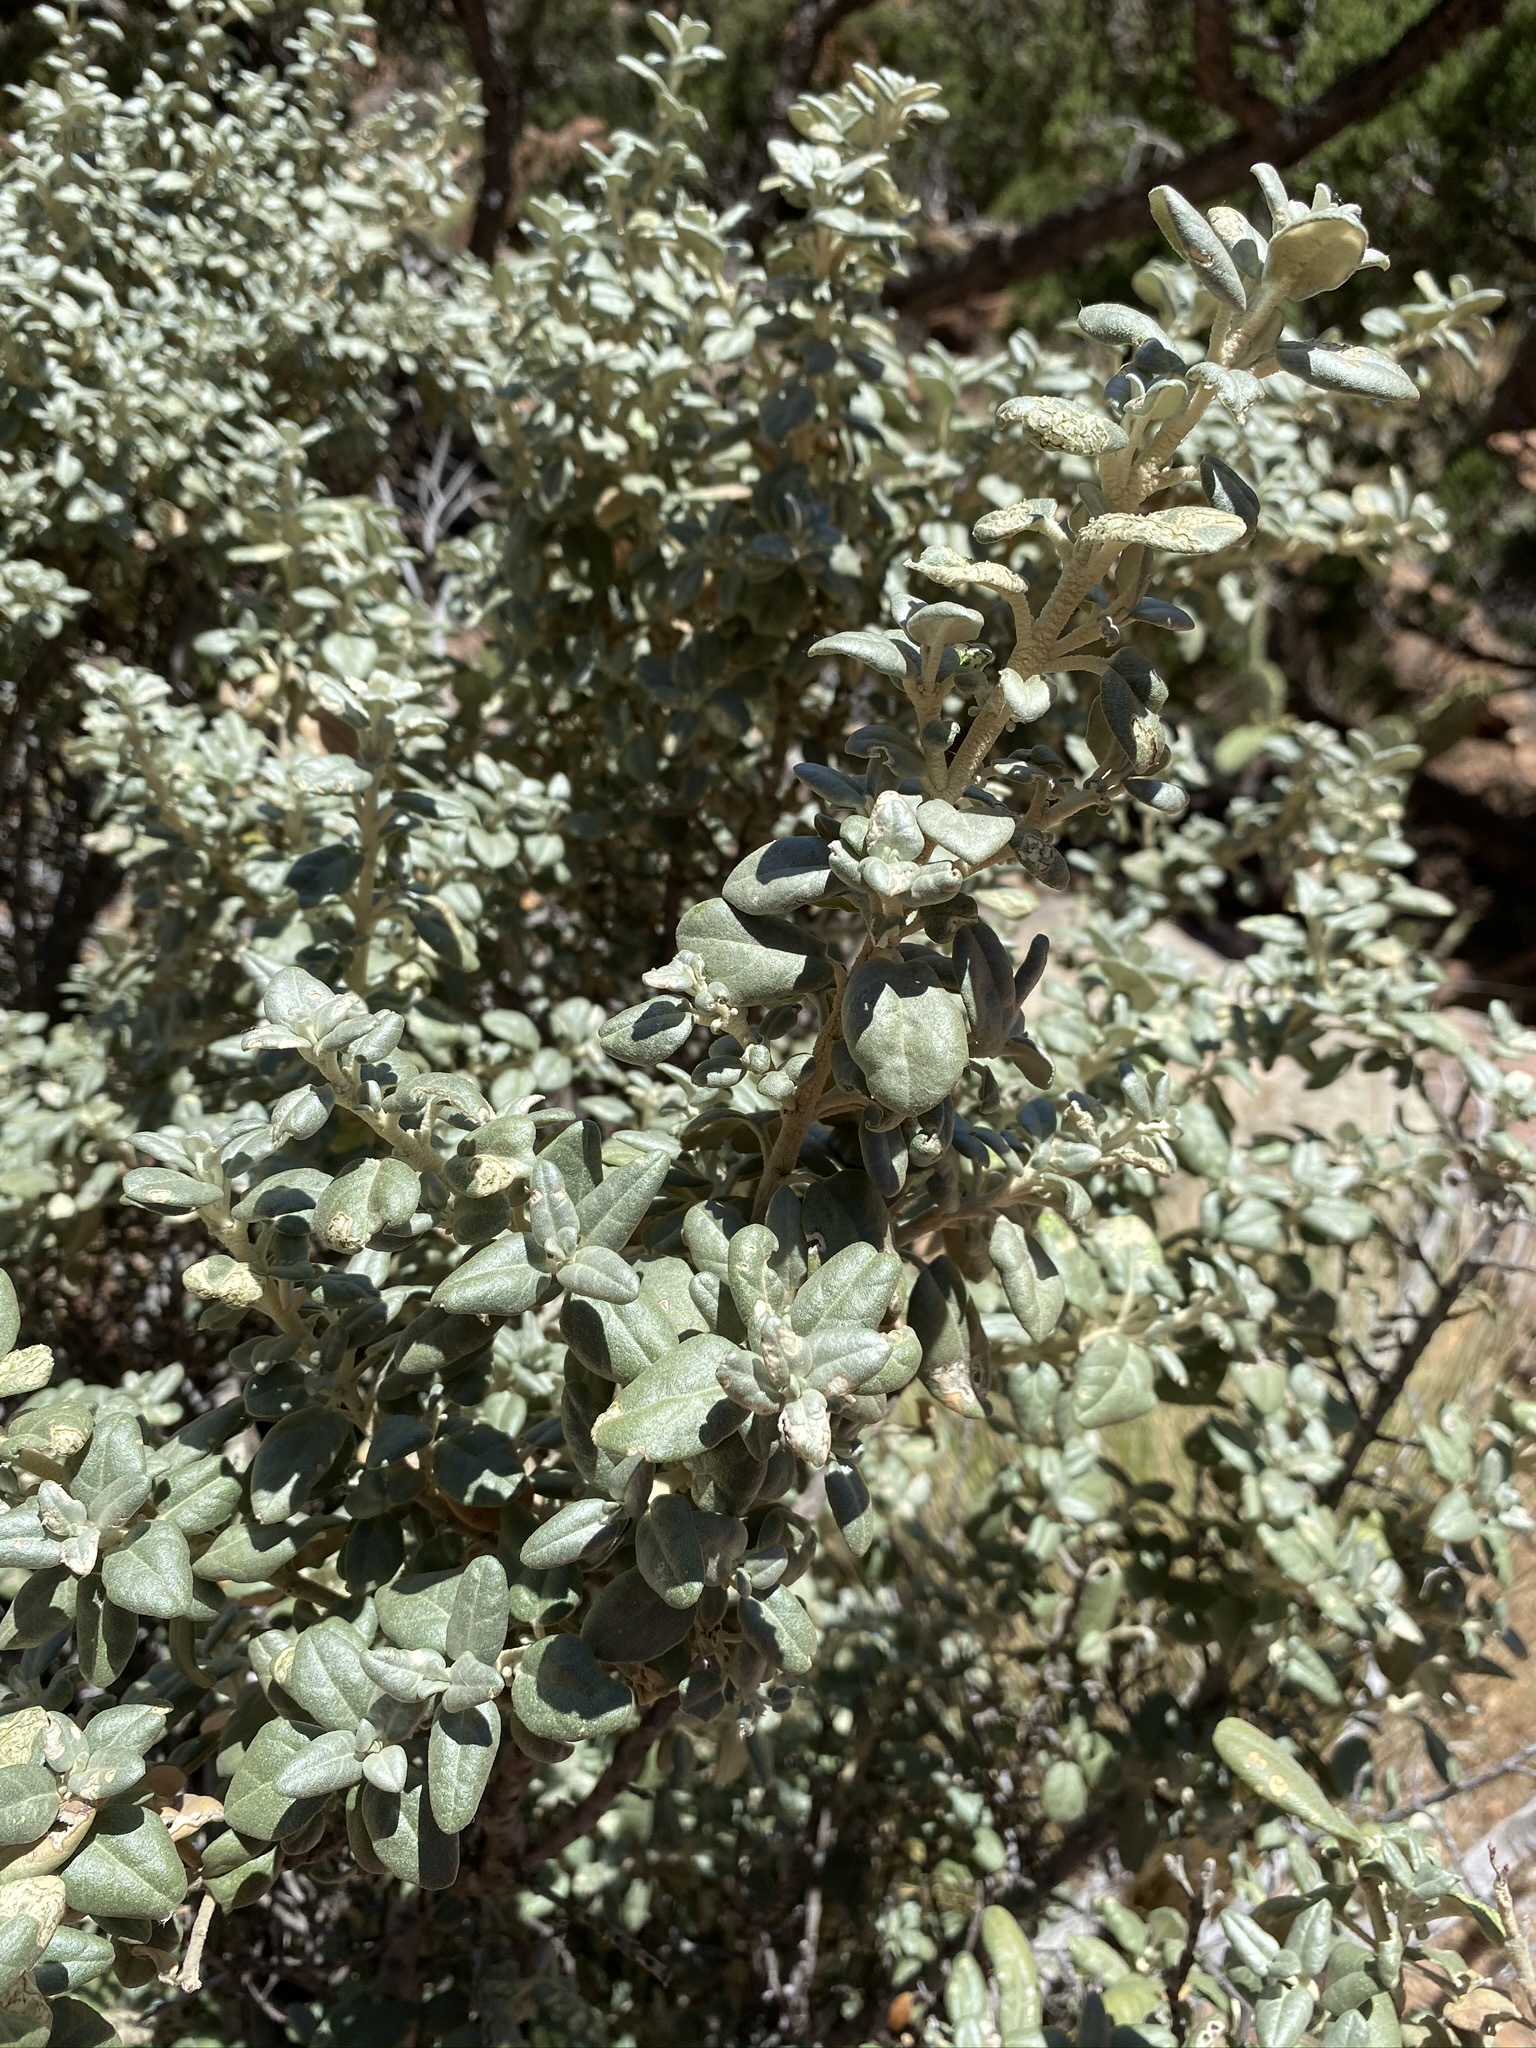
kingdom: Plantae
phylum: Tracheophyta
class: Magnoliopsida
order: Rosales
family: Elaeagnaceae
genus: Shepherdia
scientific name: Shepherdia rotundifolia
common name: Silverscale
